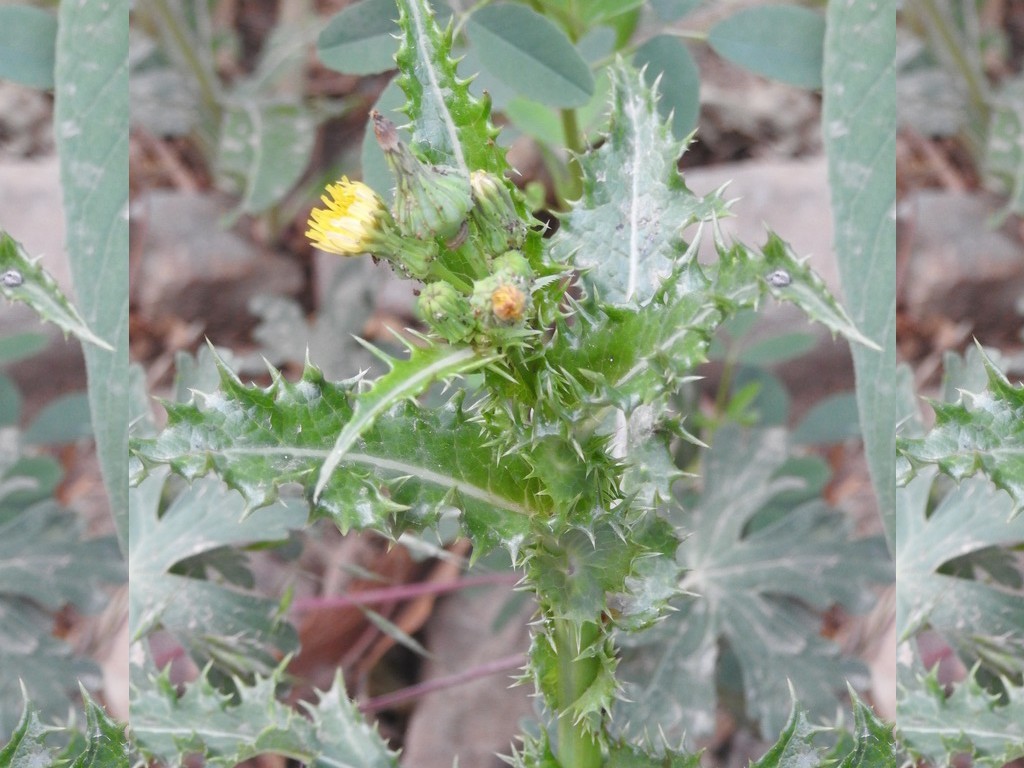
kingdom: Plantae
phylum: Tracheophyta
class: Magnoliopsida
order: Asterales
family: Asteraceae
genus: Sonchus
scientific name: Sonchus asper
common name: Prickly sow-thistle
